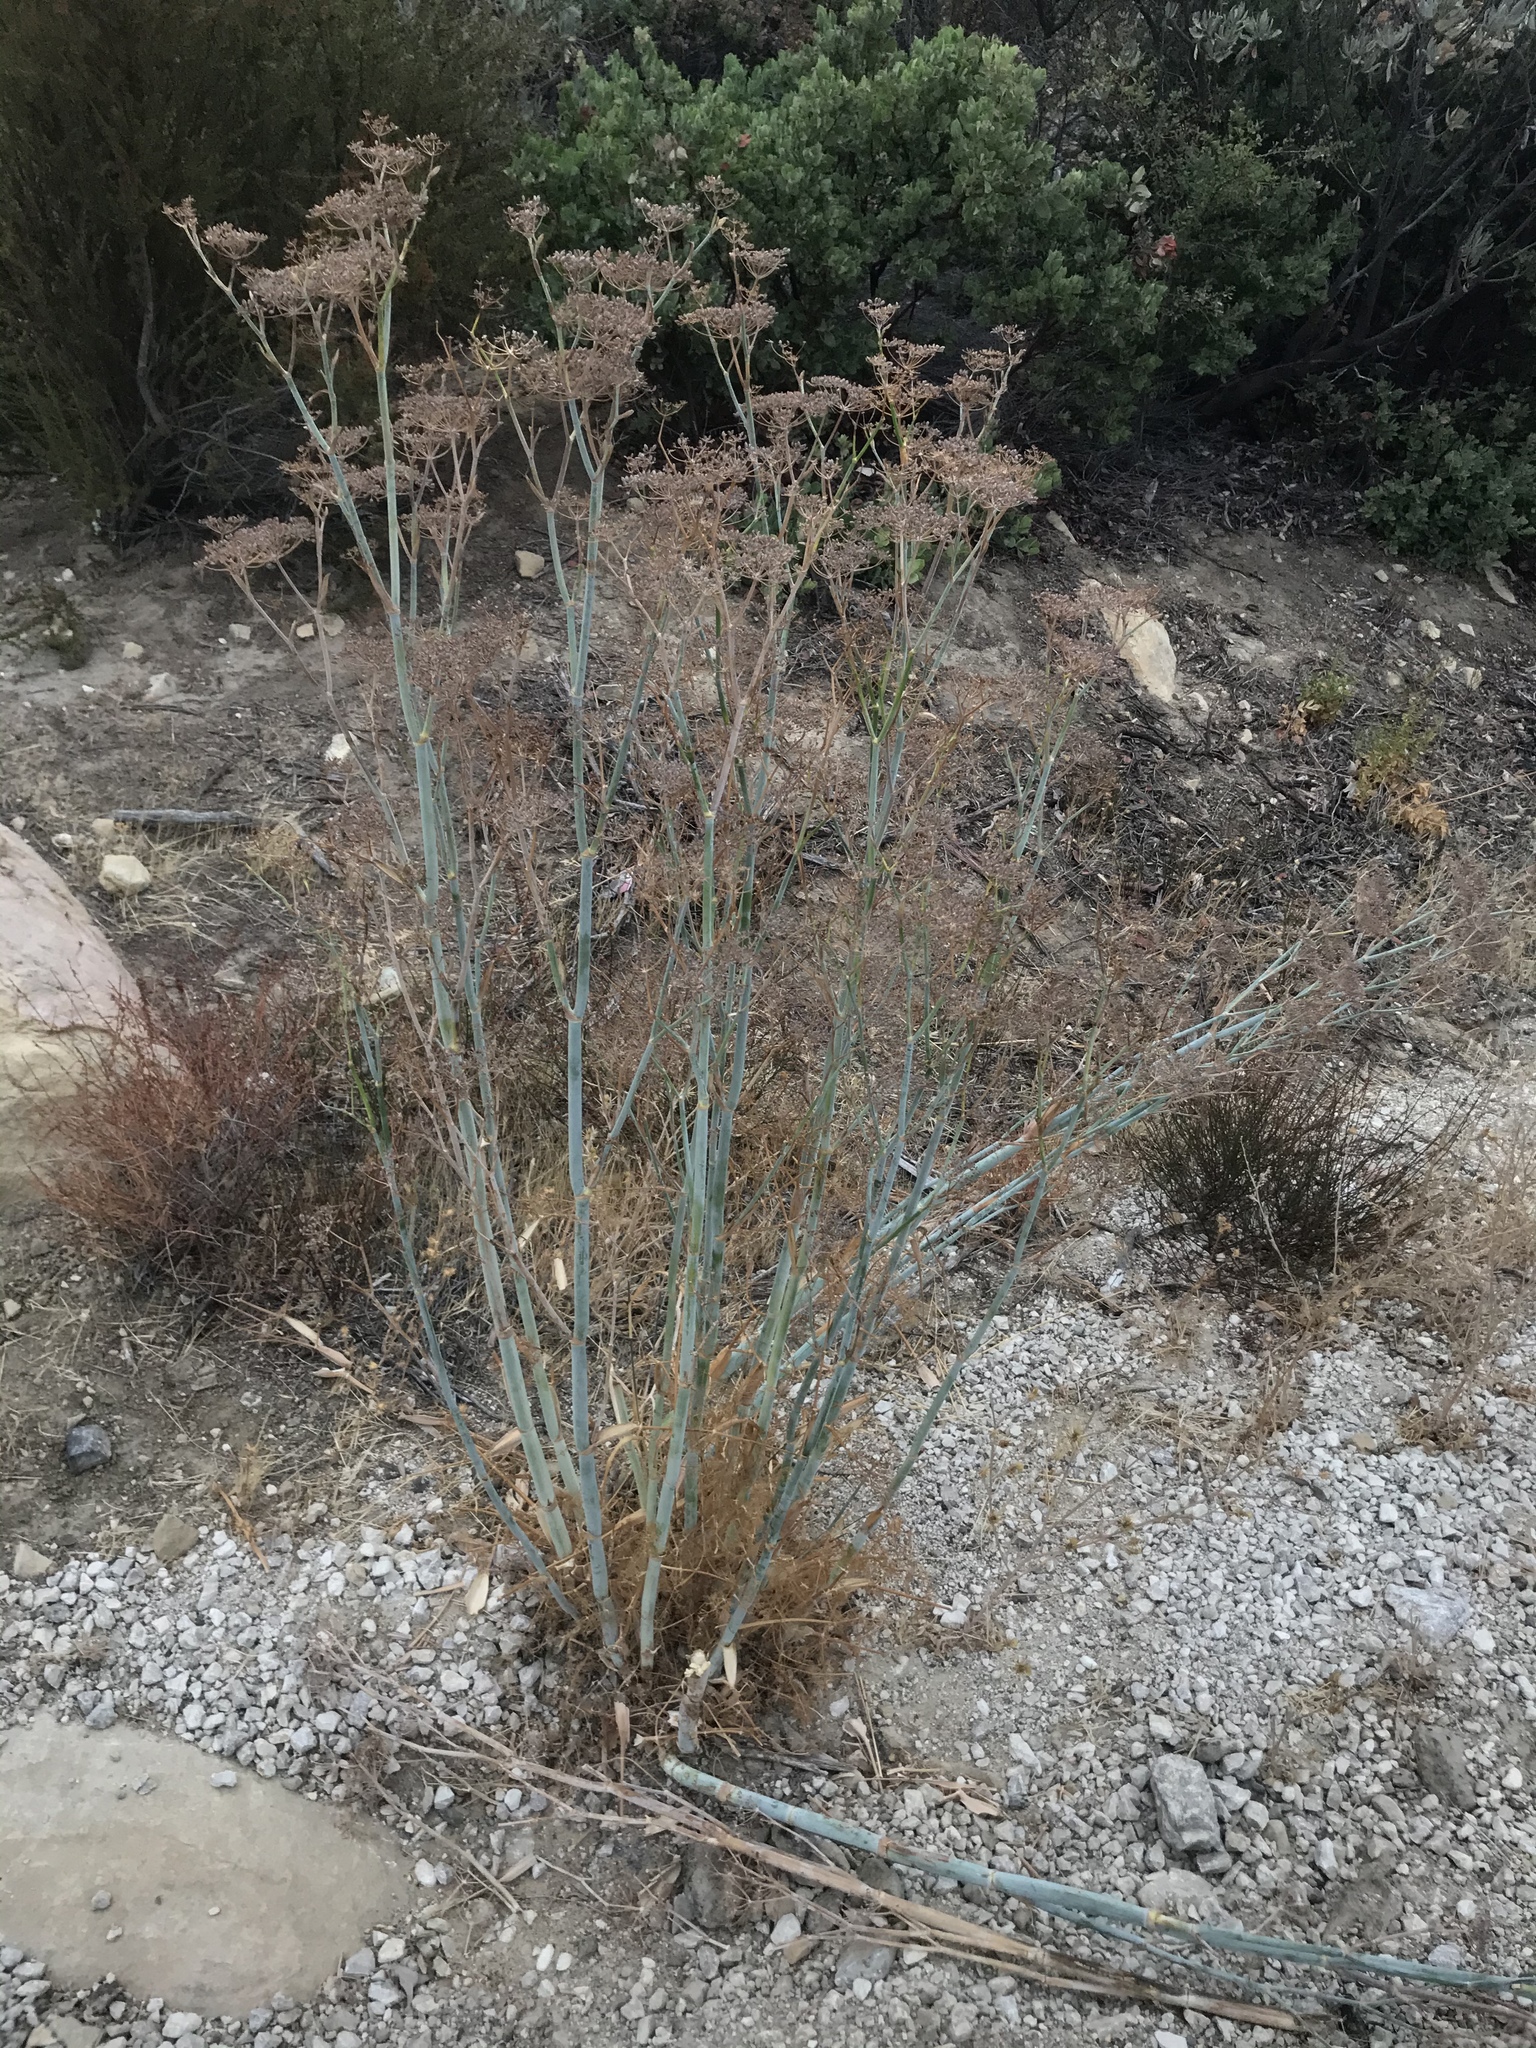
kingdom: Plantae
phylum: Tracheophyta
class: Magnoliopsida
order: Apiales
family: Apiaceae
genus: Foeniculum
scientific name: Foeniculum vulgare
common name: Fennel
